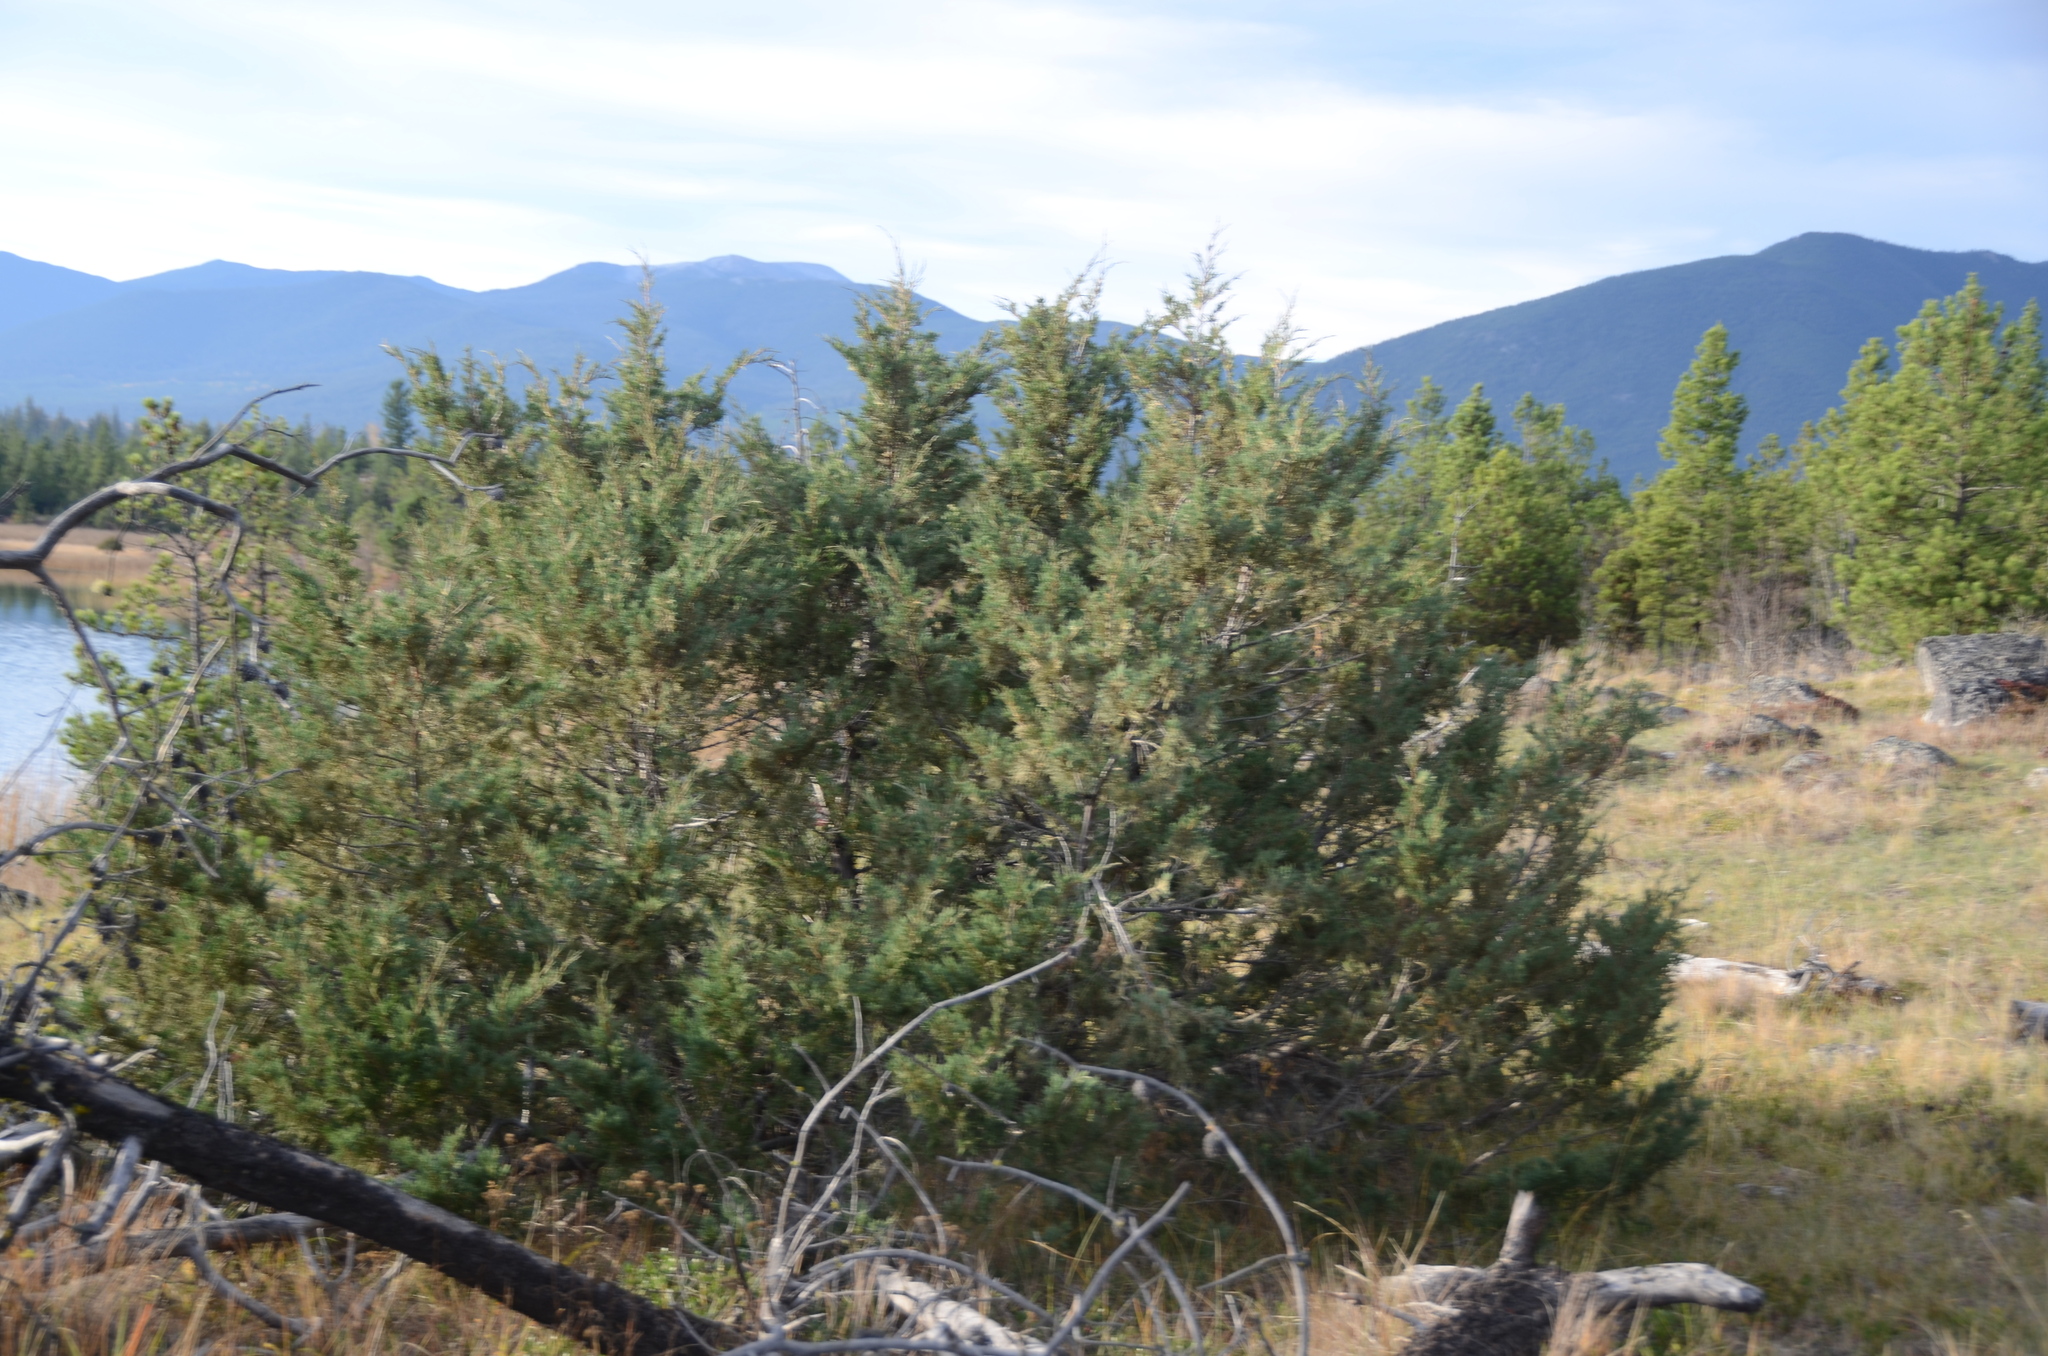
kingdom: Plantae
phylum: Tracheophyta
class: Pinopsida
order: Pinales
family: Cupressaceae
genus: Juniperus
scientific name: Juniperus scopulorum
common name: Rocky mountain juniper
